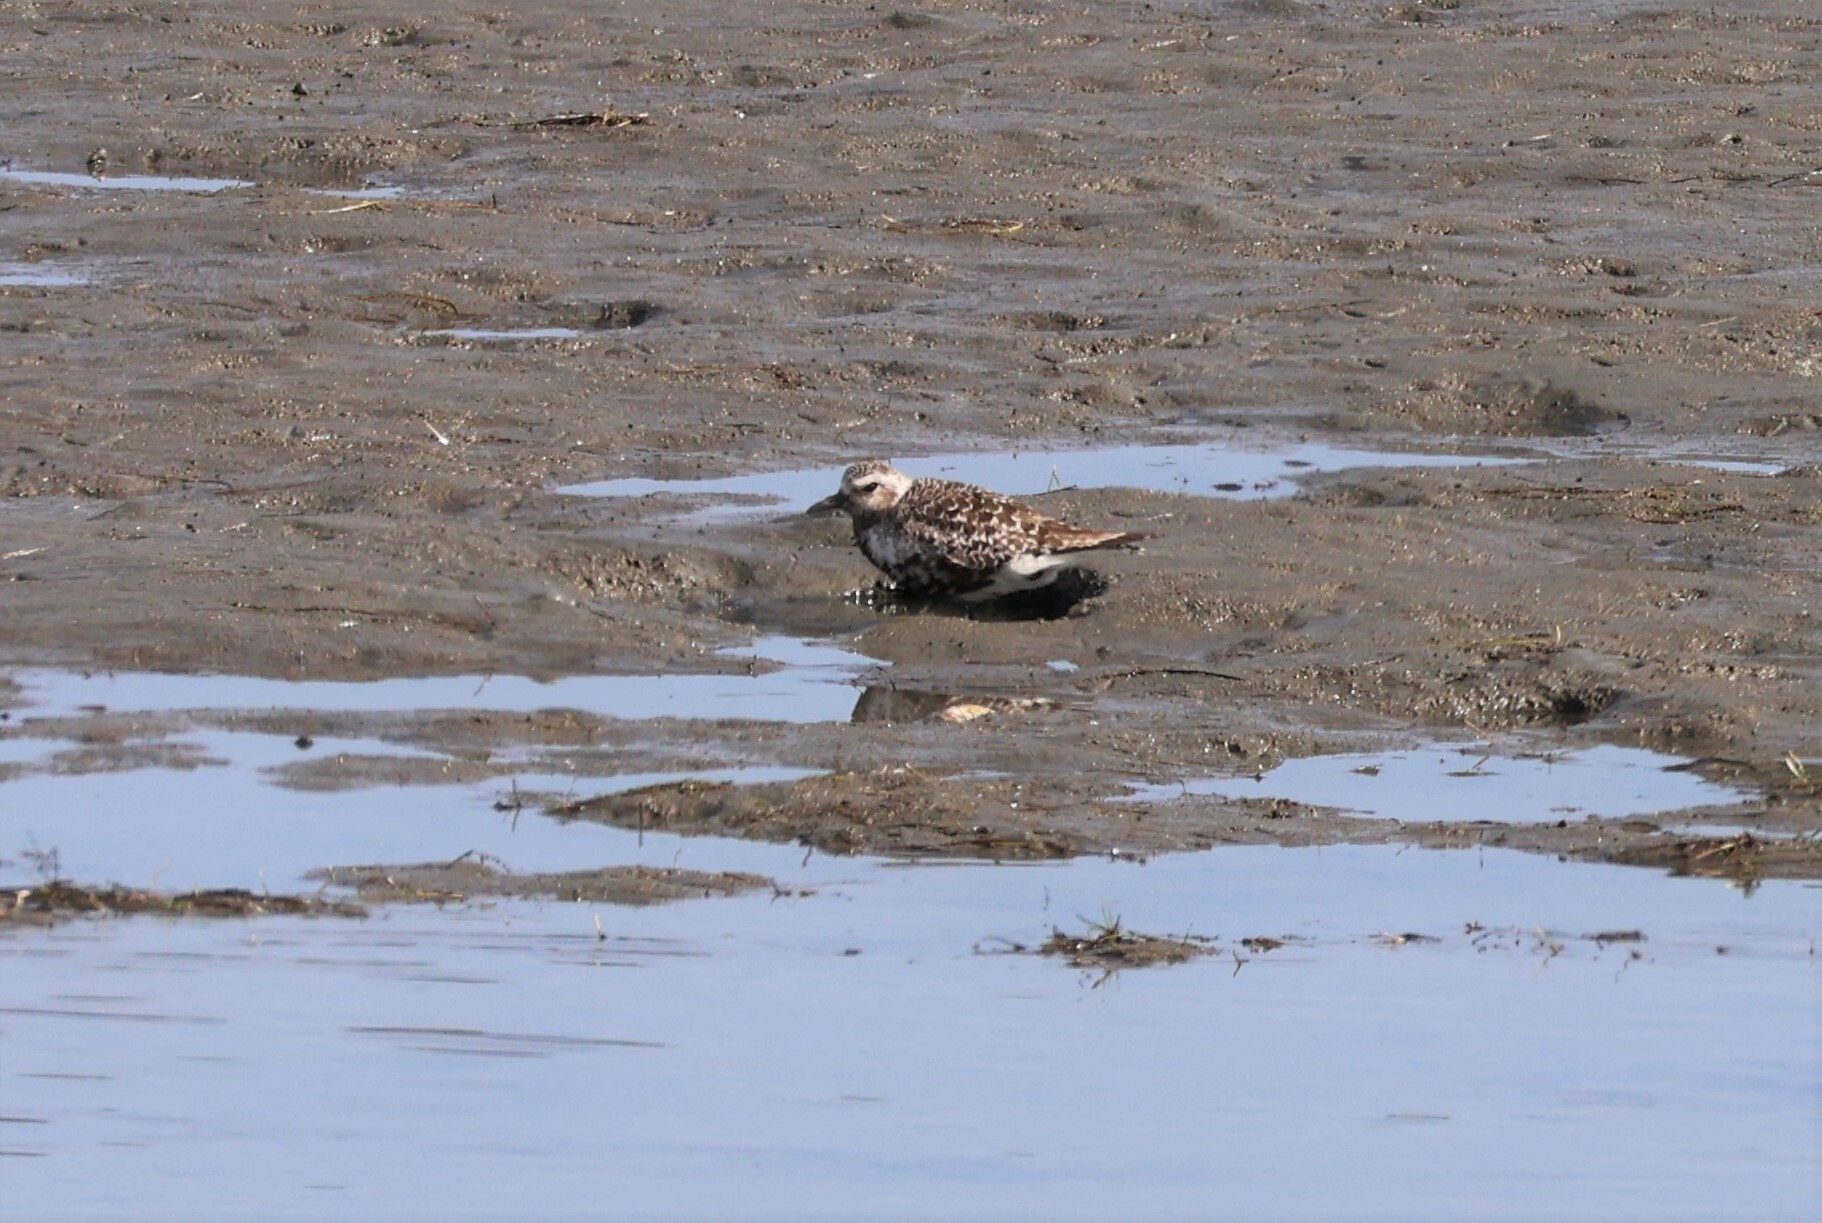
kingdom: Animalia
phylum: Chordata
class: Aves
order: Charadriiformes
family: Charadriidae
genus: Pluvialis
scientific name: Pluvialis squatarola
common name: Grey plover
